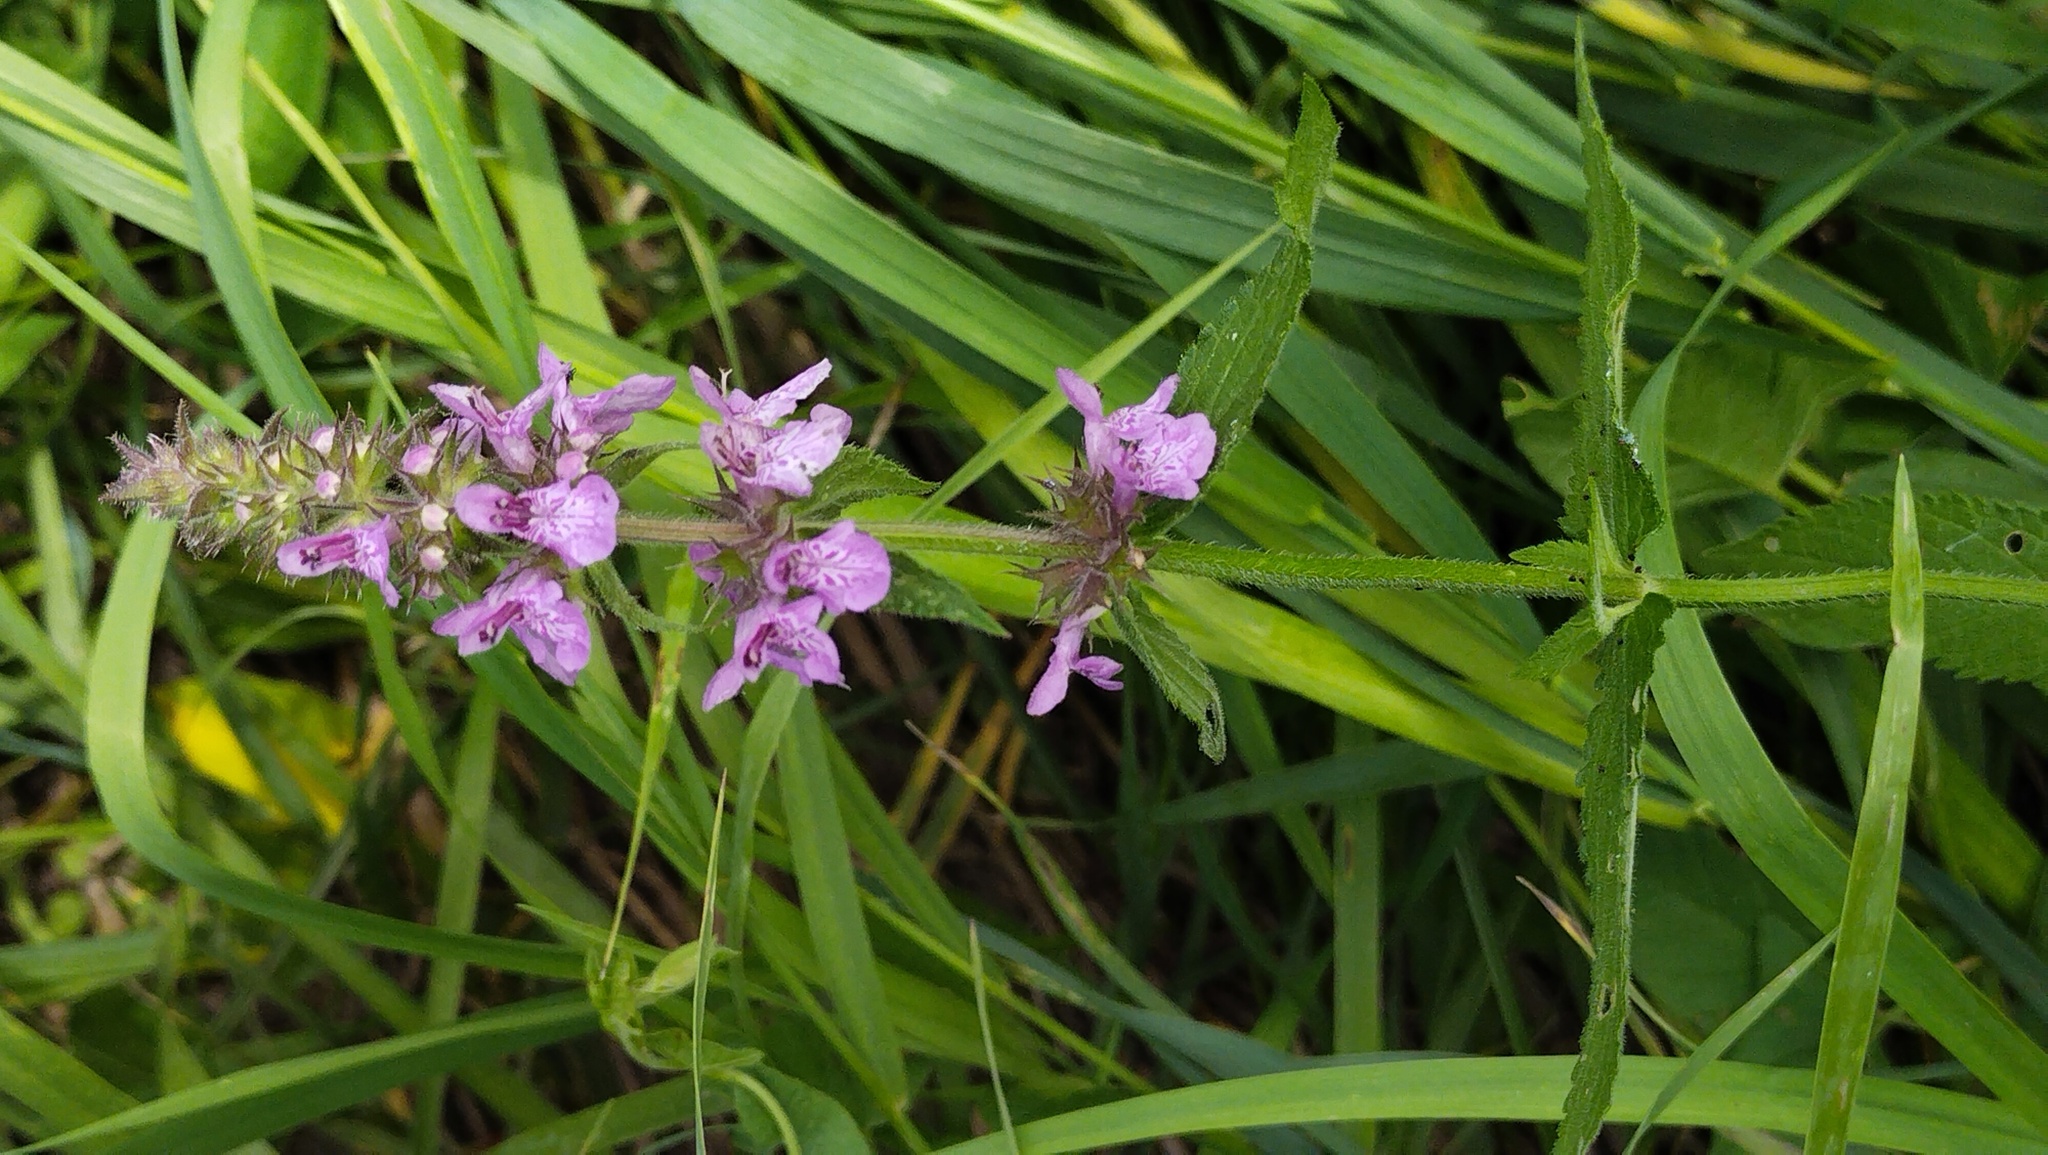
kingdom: Plantae
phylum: Tracheophyta
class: Magnoliopsida
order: Lamiales
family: Lamiaceae
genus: Stachys
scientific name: Stachys palustris
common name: Marsh woundwort
